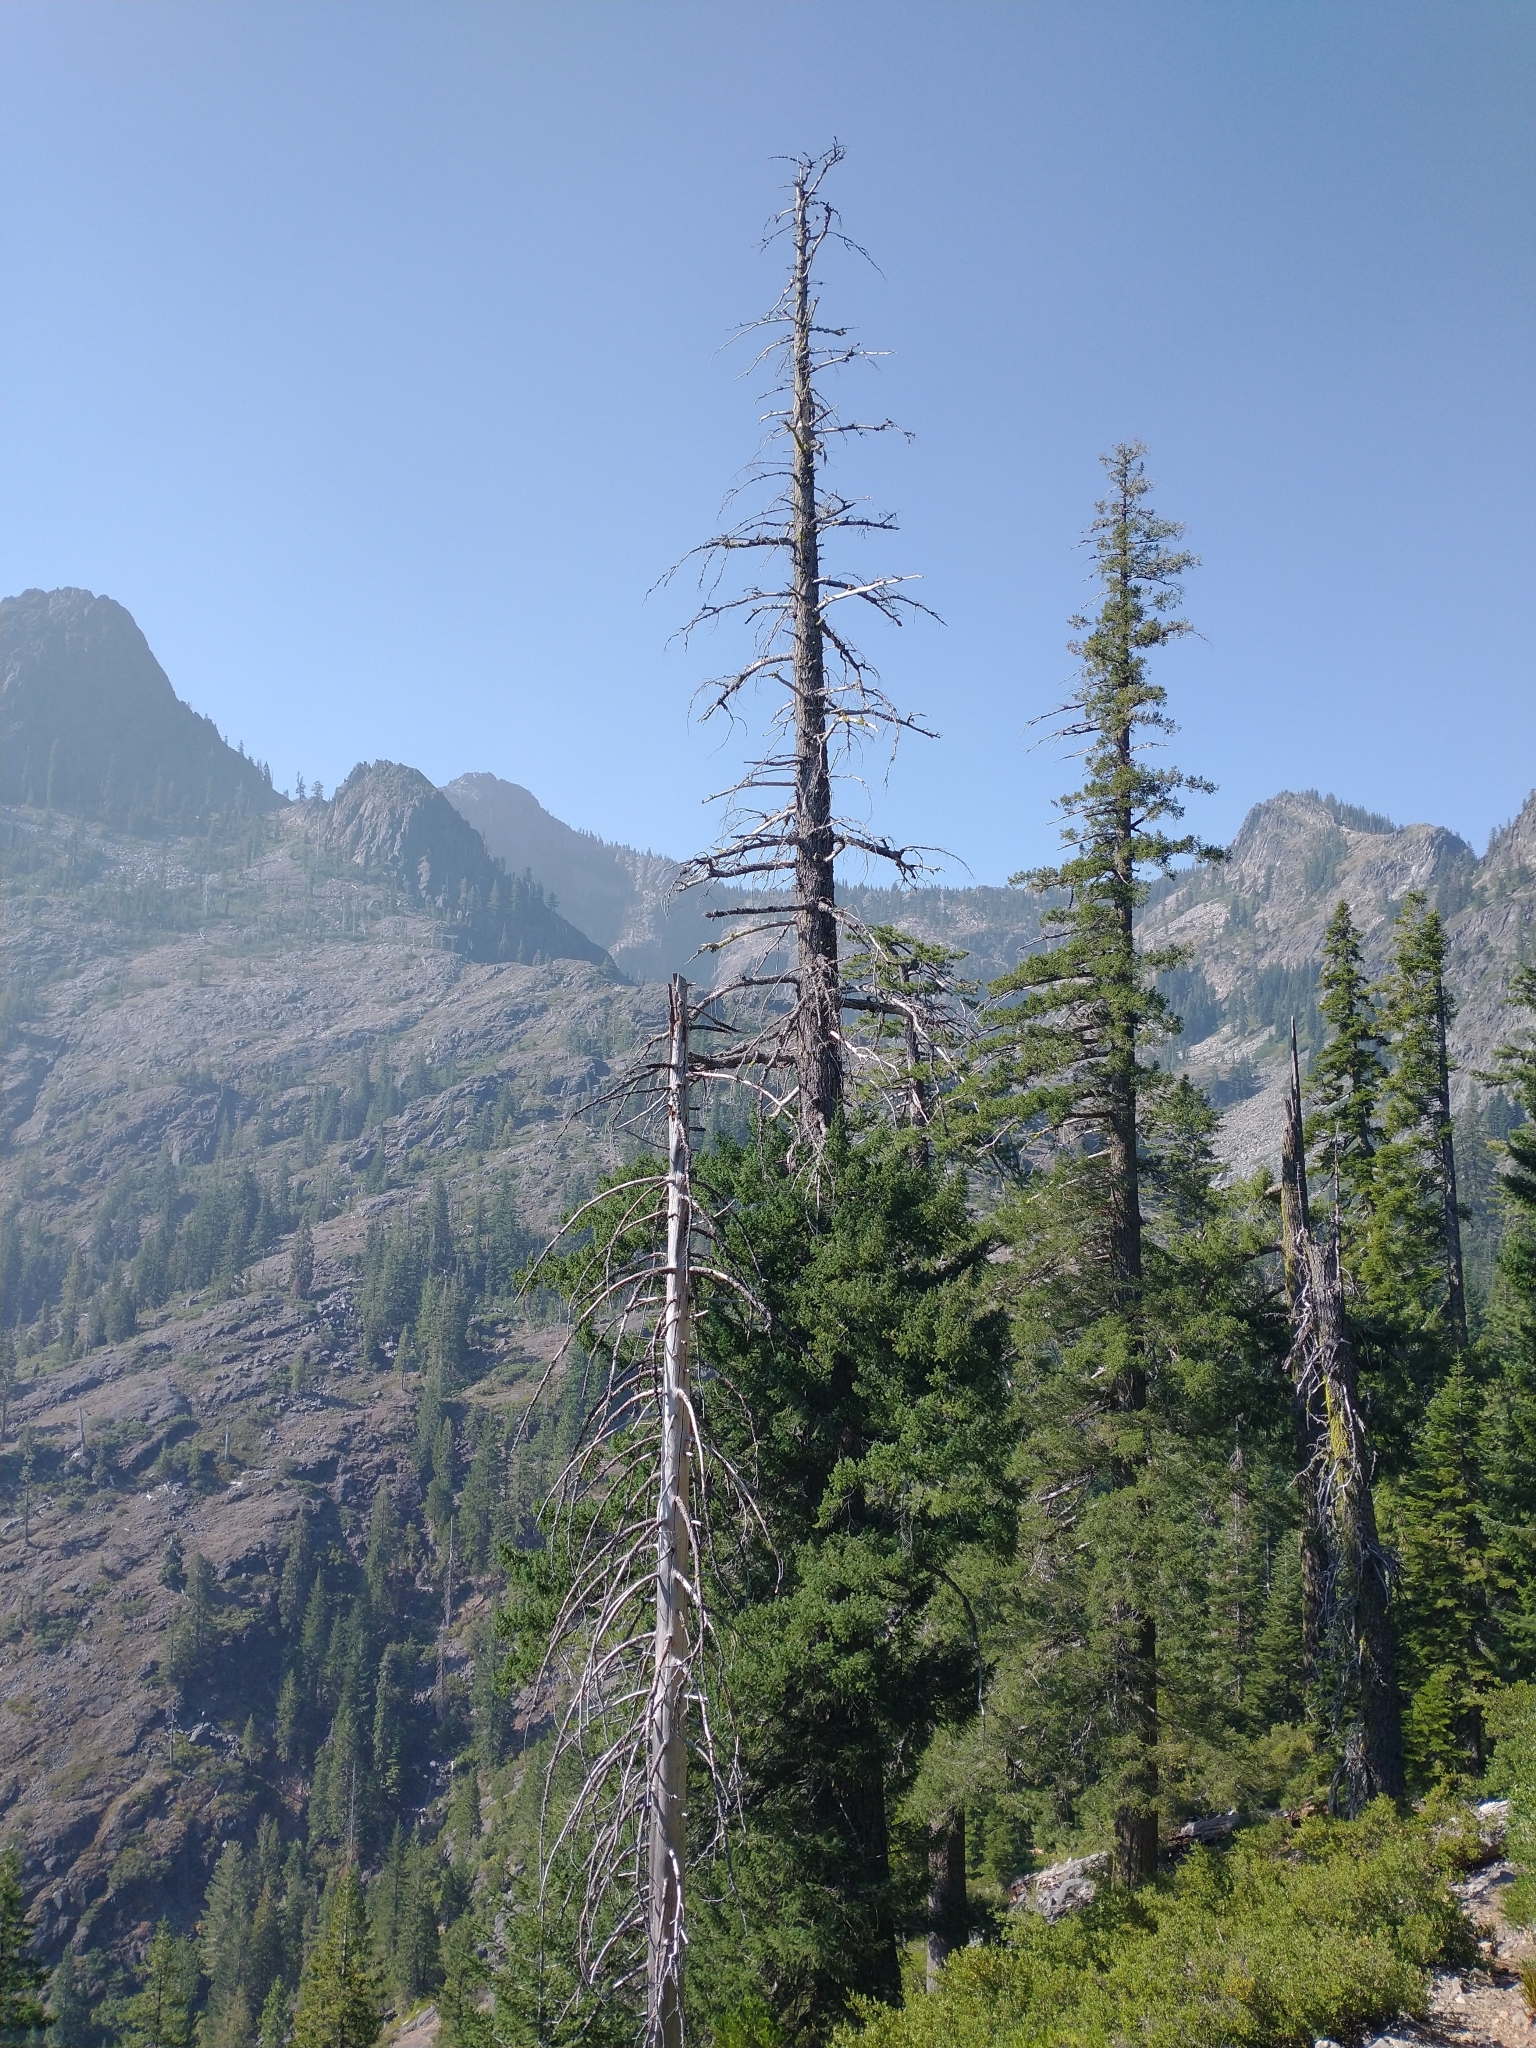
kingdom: Plantae
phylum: Tracheophyta
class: Pinopsida
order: Pinales
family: Pinaceae
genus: Pseudotsuga
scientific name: Pseudotsuga menziesii
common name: Douglas fir
